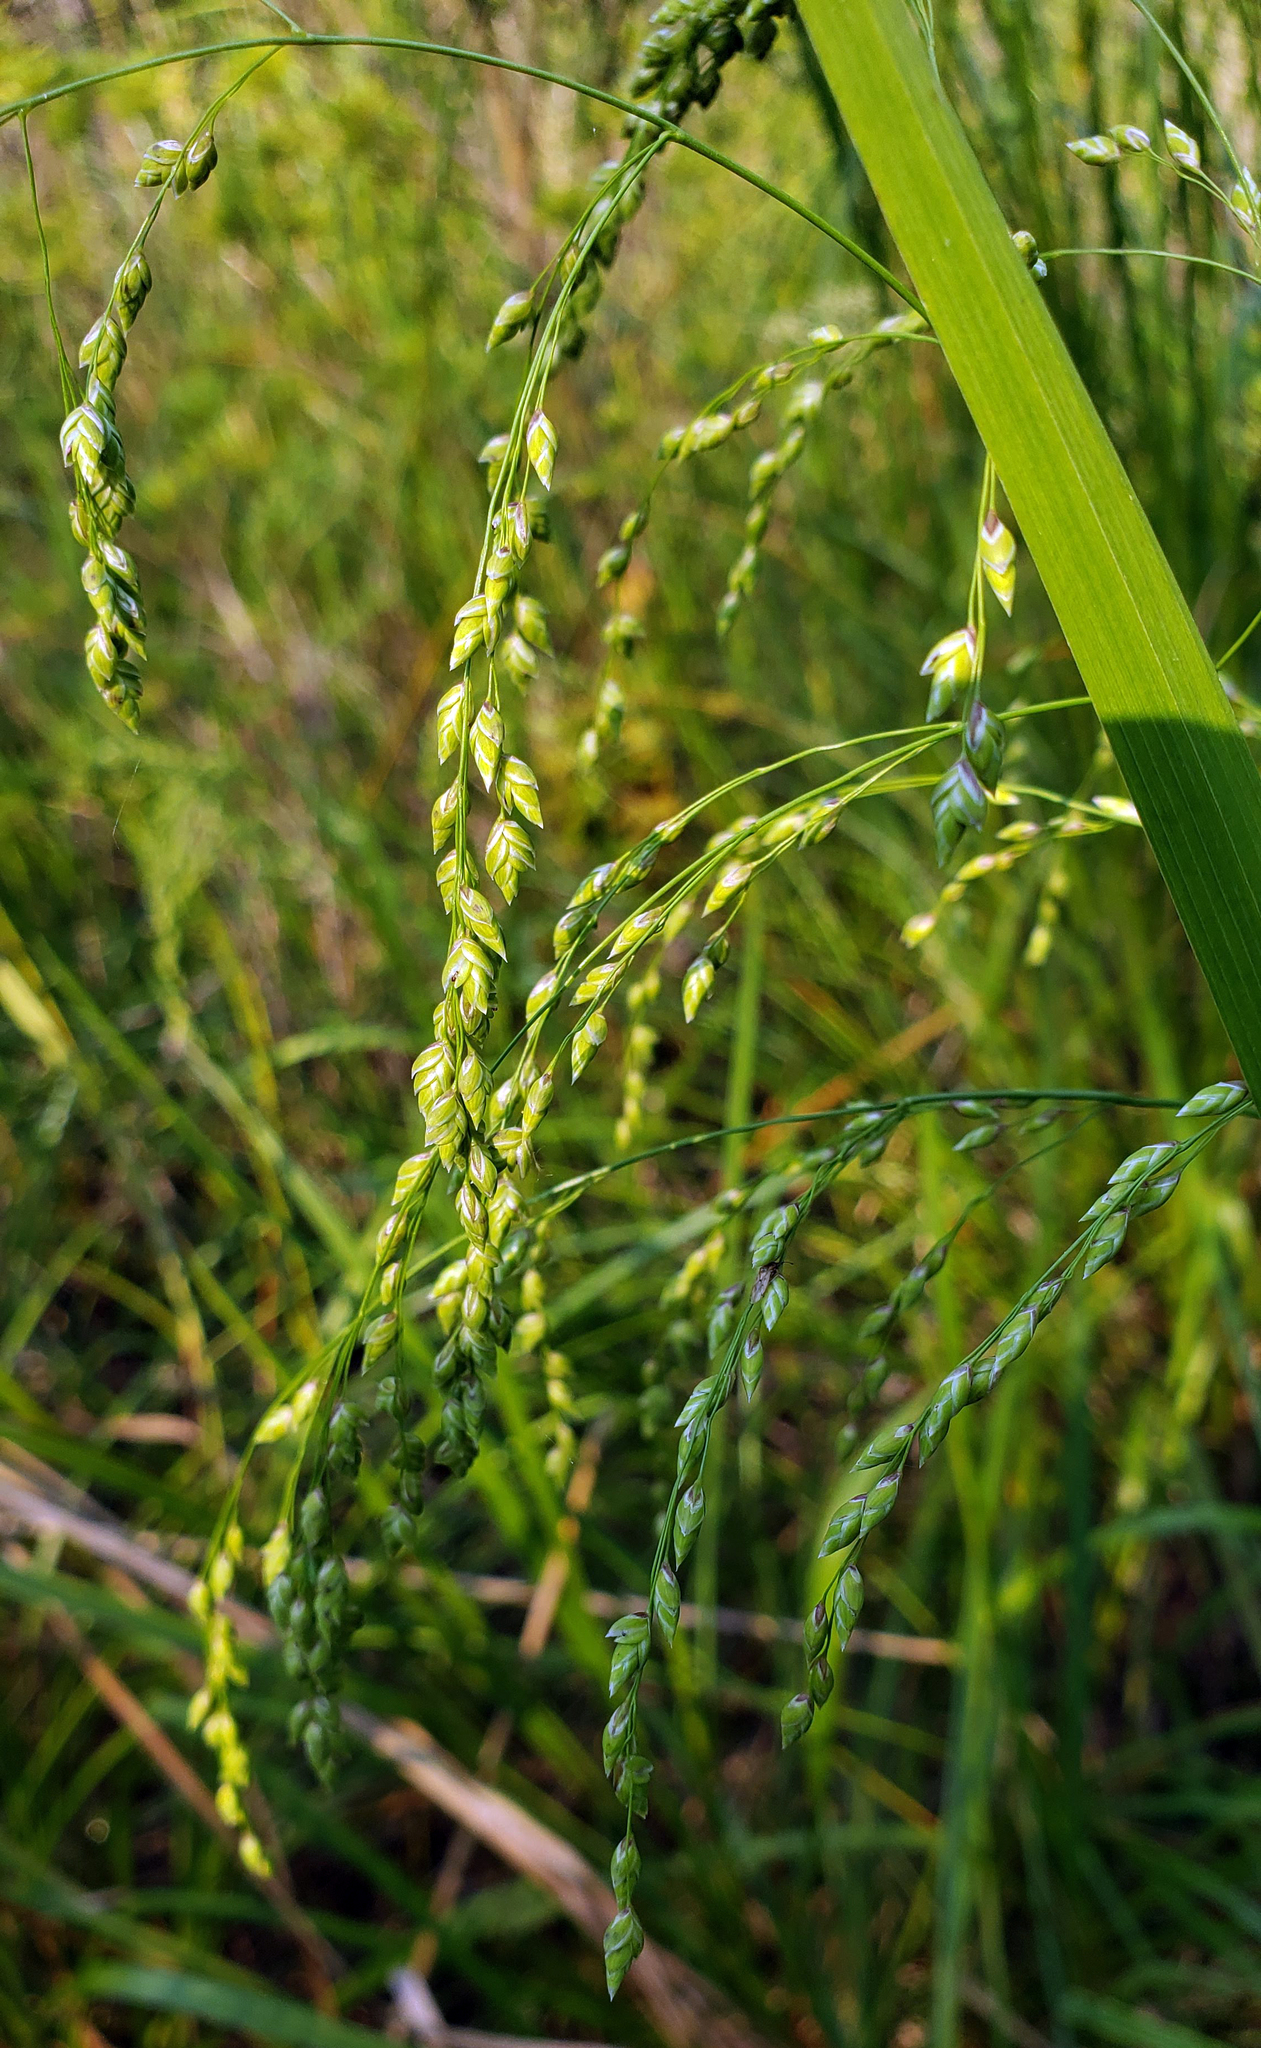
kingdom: Plantae
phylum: Tracheophyta
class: Liliopsida
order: Poales
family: Poaceae
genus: Glyceria
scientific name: Glyceria canadensis
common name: Canada mannagrass
